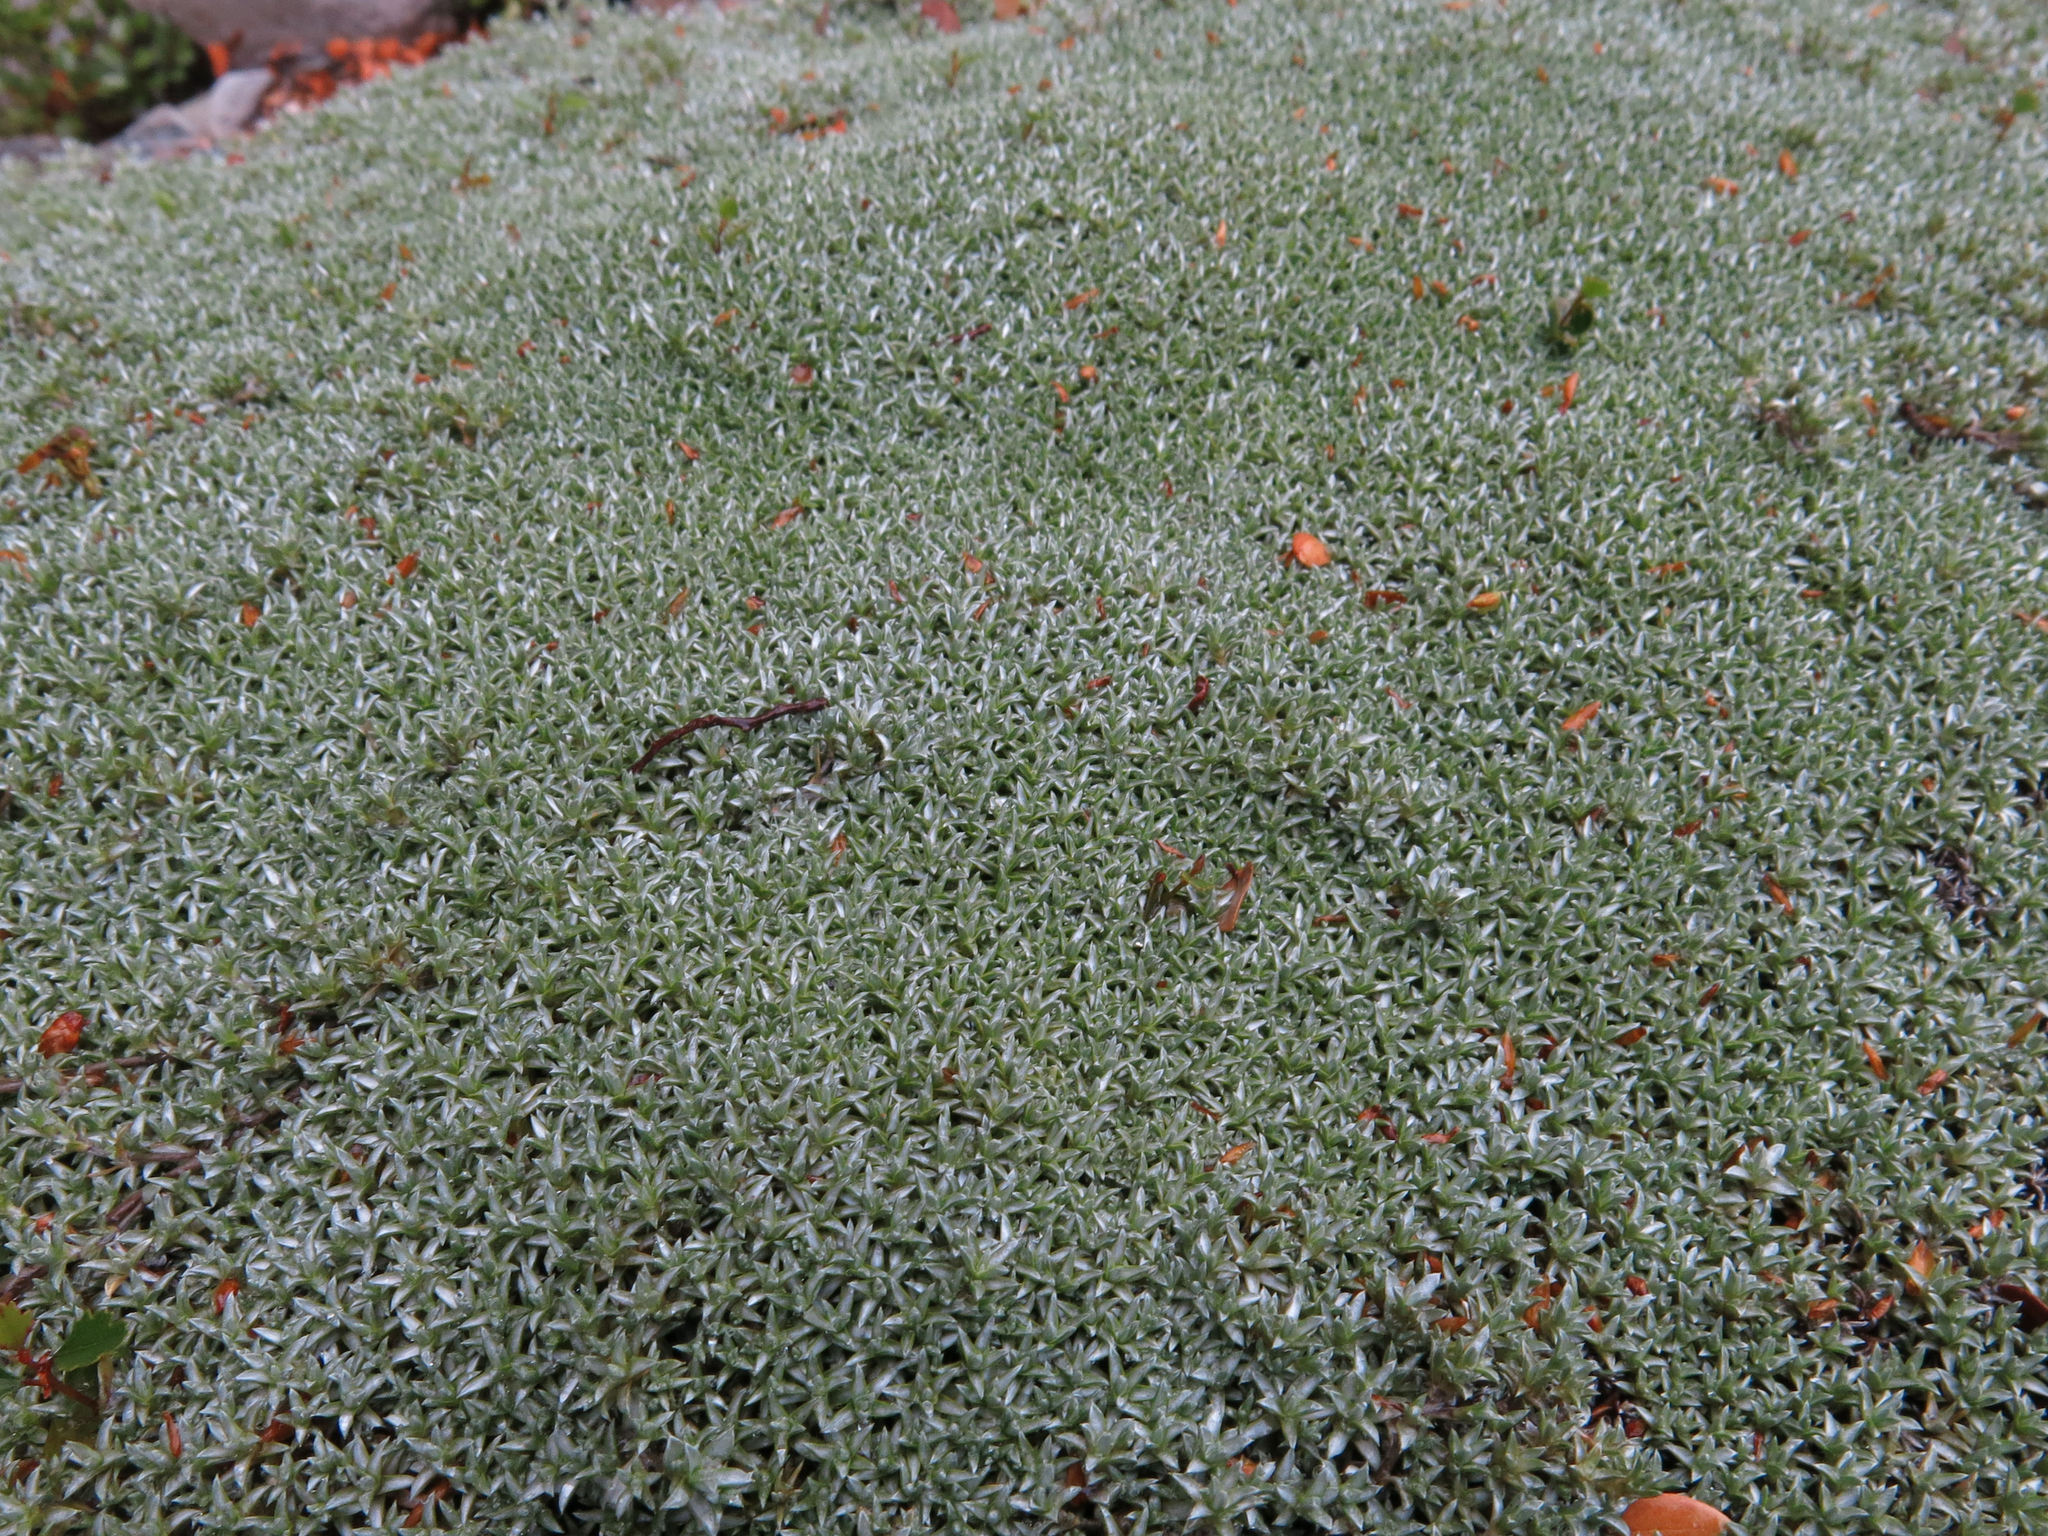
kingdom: Plantae
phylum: Tracheophyta
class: Magnoliopsida
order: Asterales
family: Asteraceae
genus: Raoulia
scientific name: Raoulia tenuicaulis
